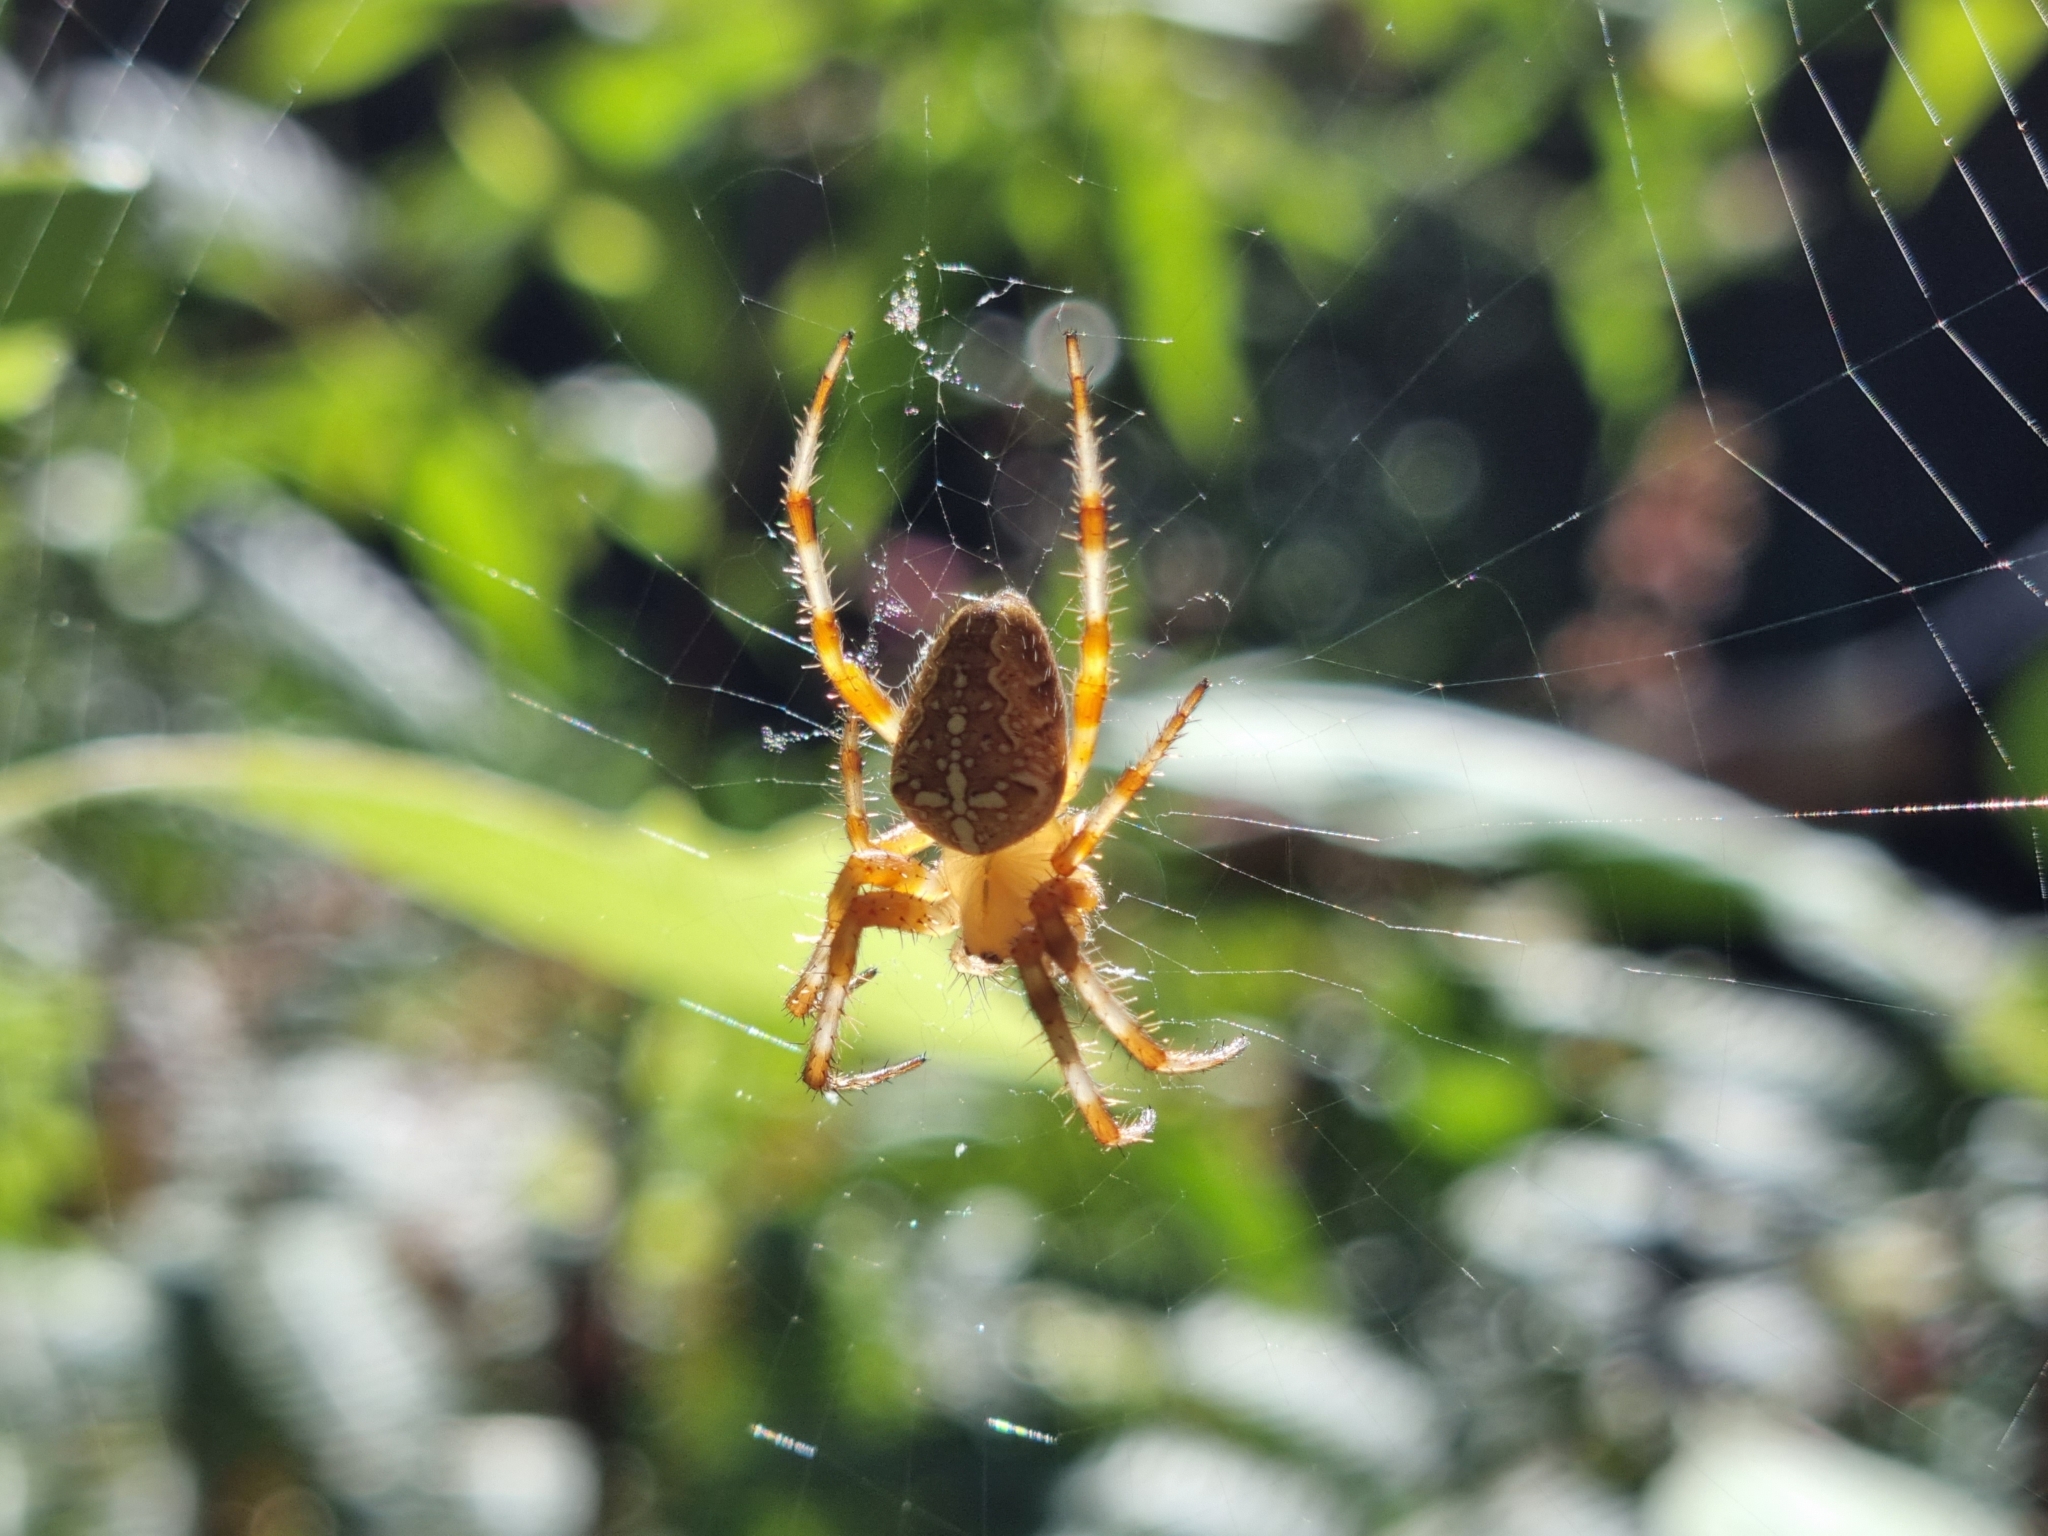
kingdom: Animalia
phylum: Arthropoda
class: Arachnida
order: Araneae
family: Araneidae
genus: Araneus
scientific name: Araneus diadematus
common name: Cross orbweaver
